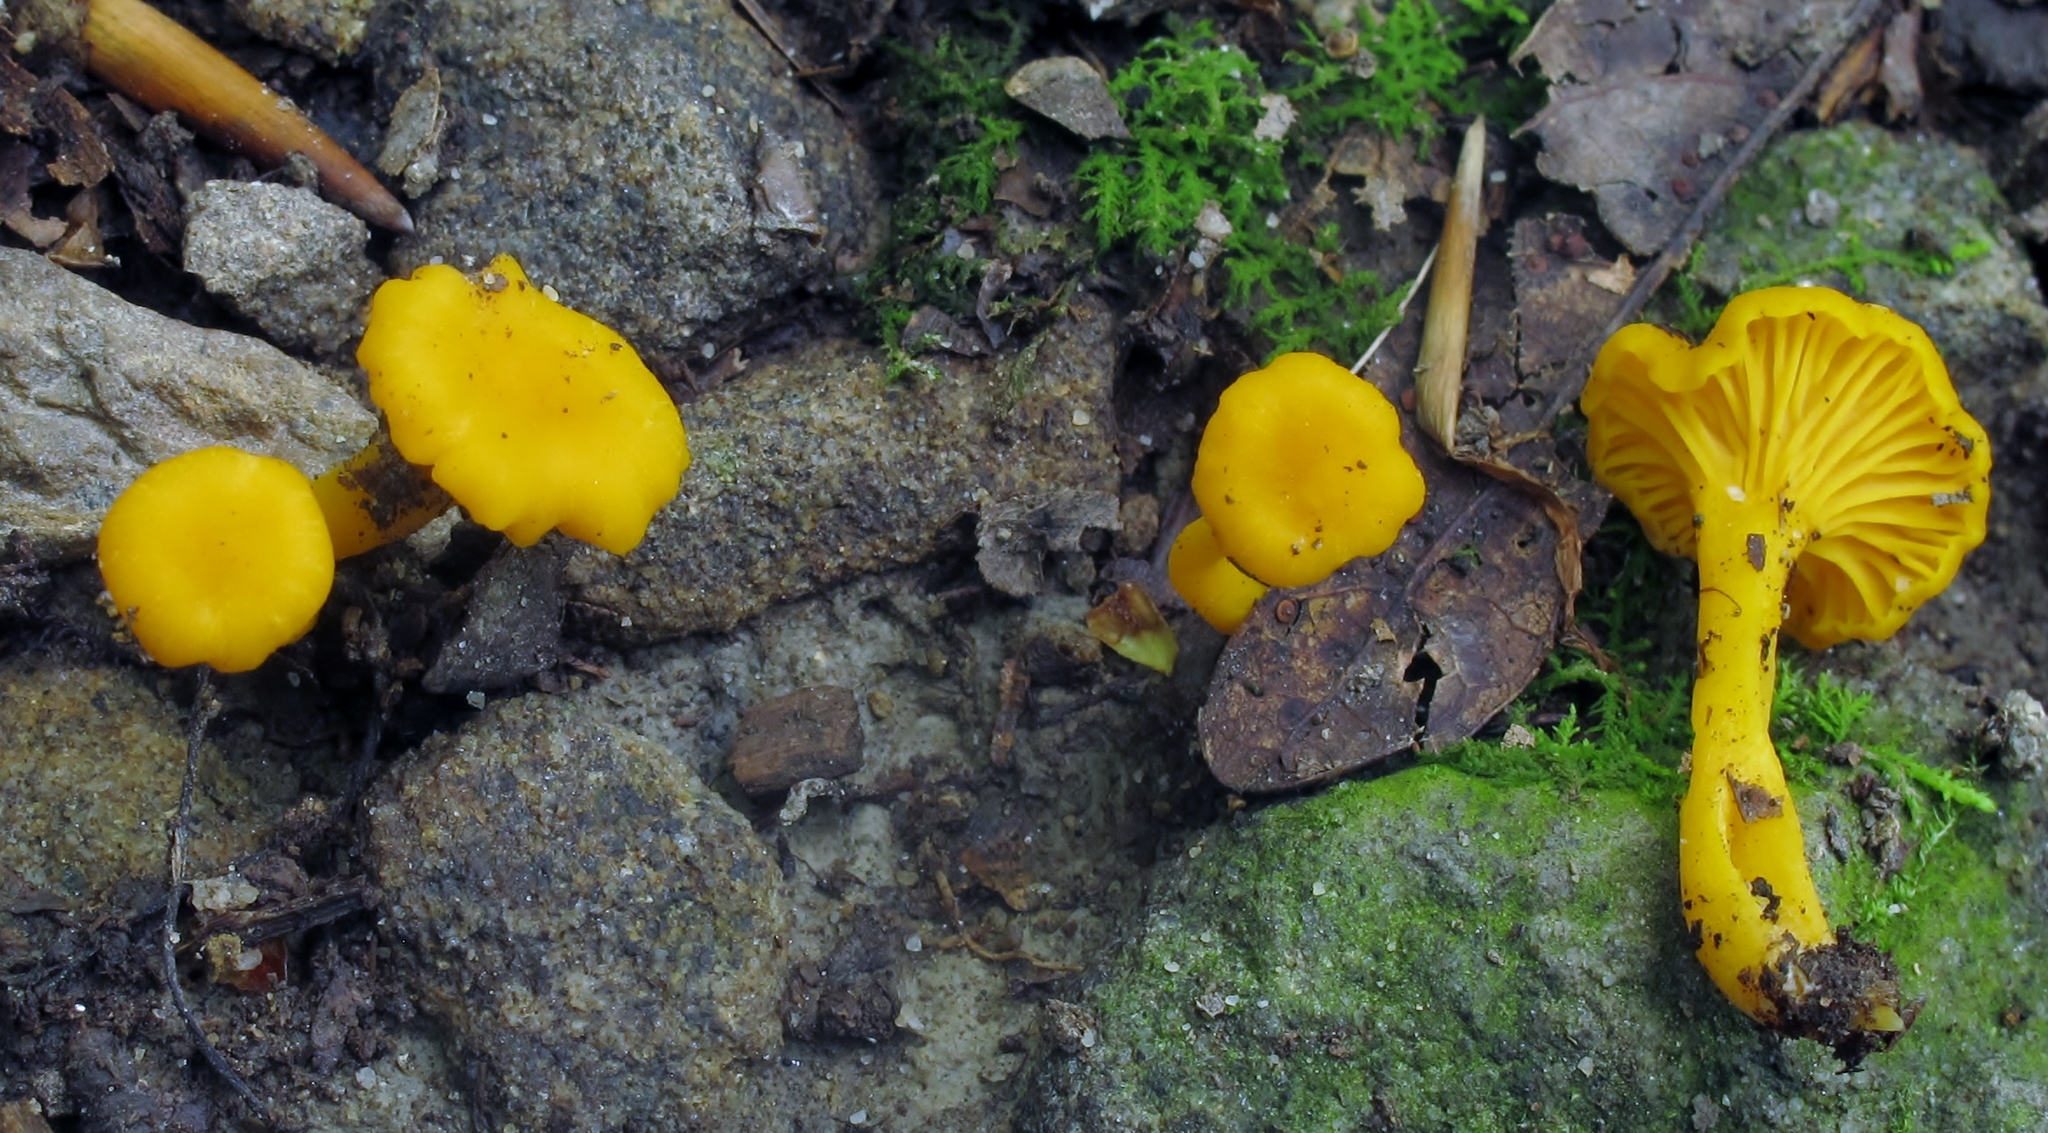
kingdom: Fungi
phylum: Basidiomycota
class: Agaricomycetes
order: Cantharellales
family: Hydnaceae
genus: Cantharellus
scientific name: Cantharellus minor
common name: Small chanterelle
